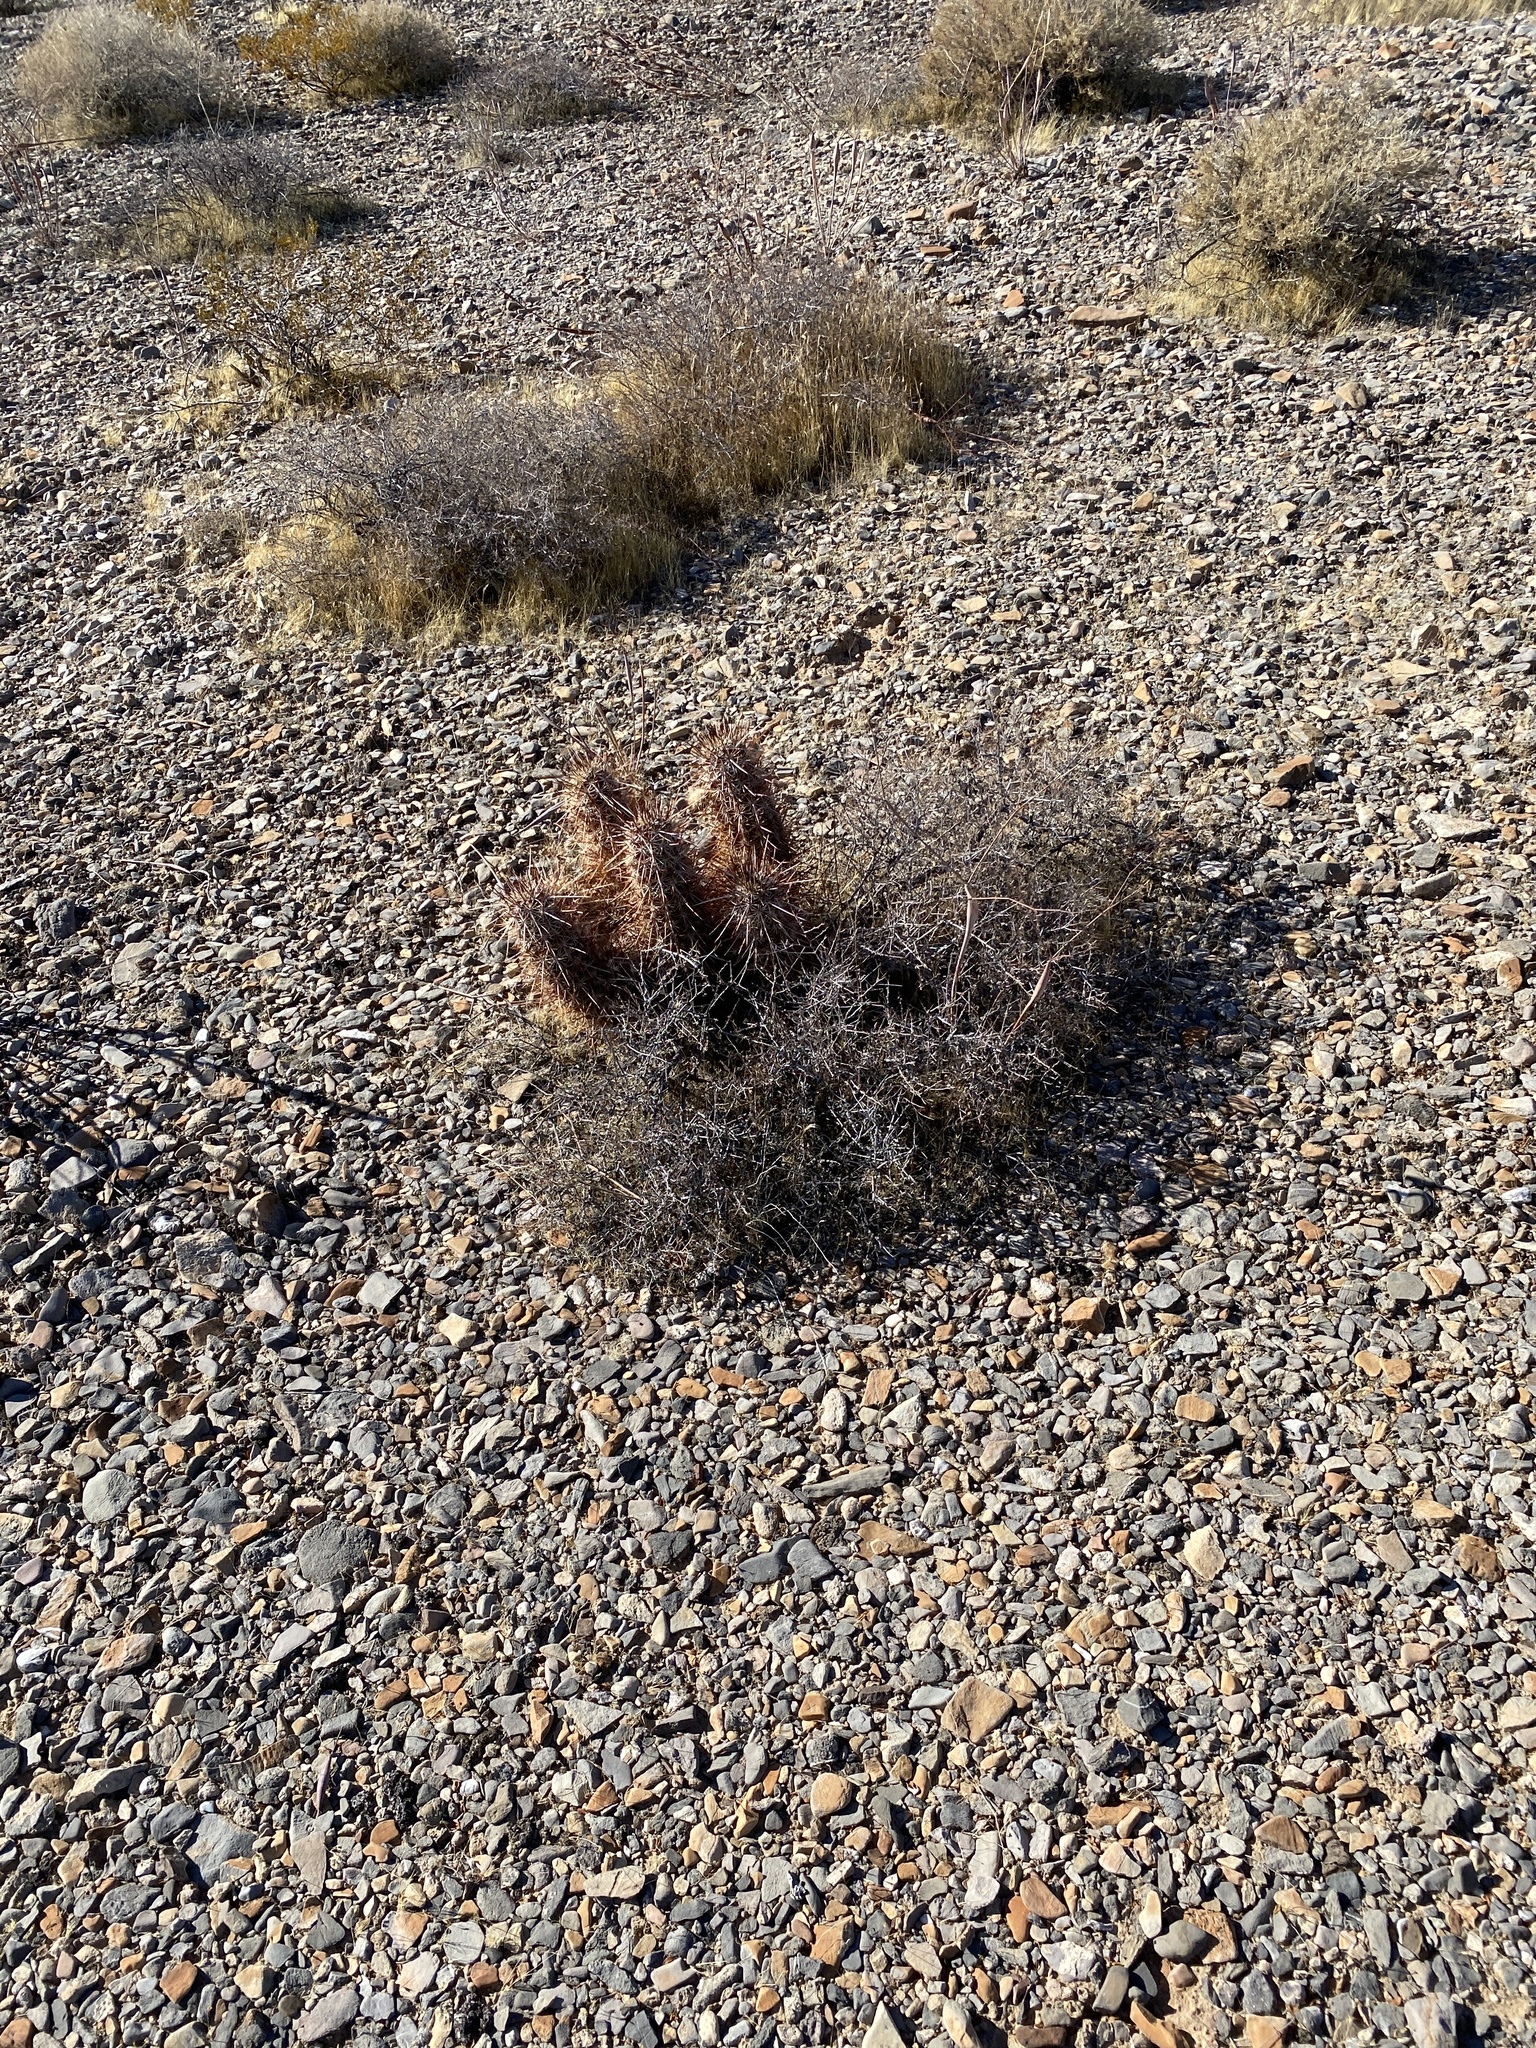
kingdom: Plantae
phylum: Tracheophyta
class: Magnoliopsida
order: Caryophyllales
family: Cactaceae
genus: Echinocereus
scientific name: Echinocereus engelmannii
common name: Engelmann's hedgehog cactus
